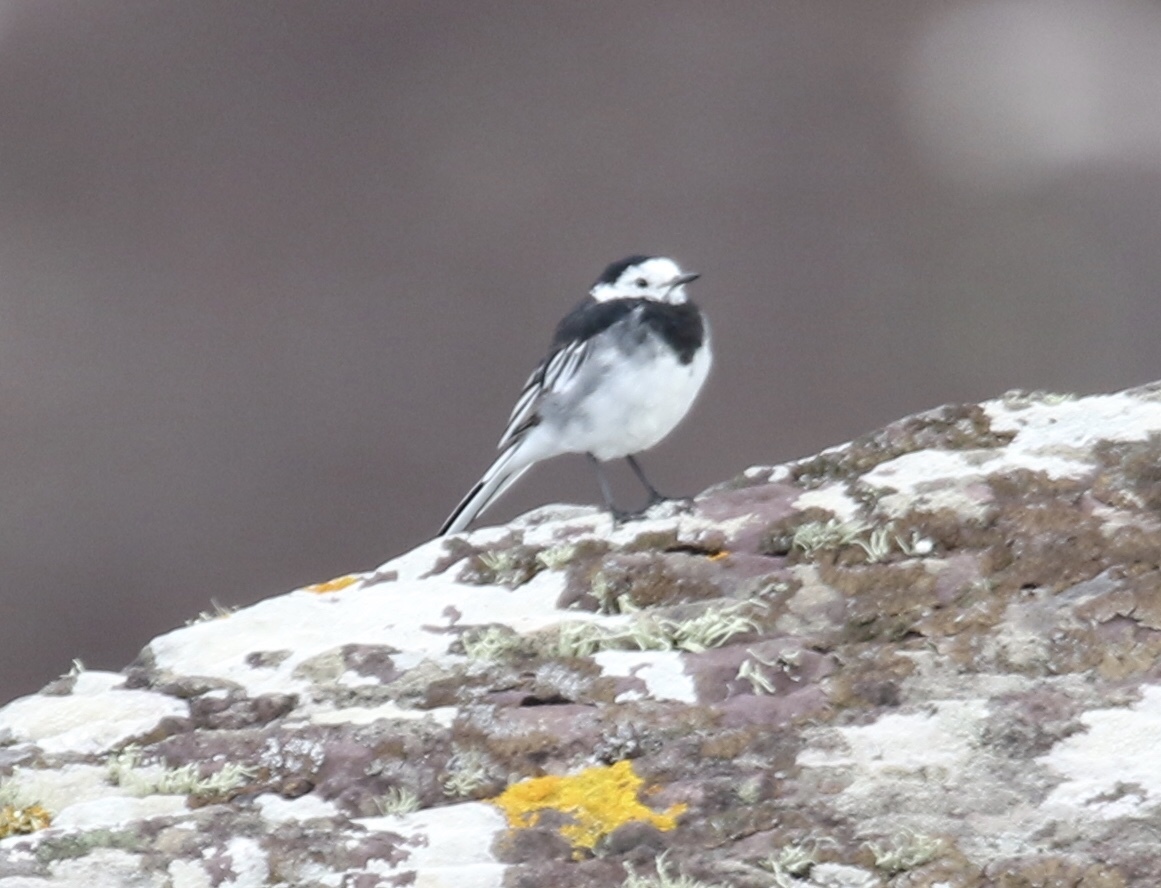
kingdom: Animalia
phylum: Chordata
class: Aves
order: Passeriformes
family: Motacillidae
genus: Motacilla
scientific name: Motacilla alba
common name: White wagtail
